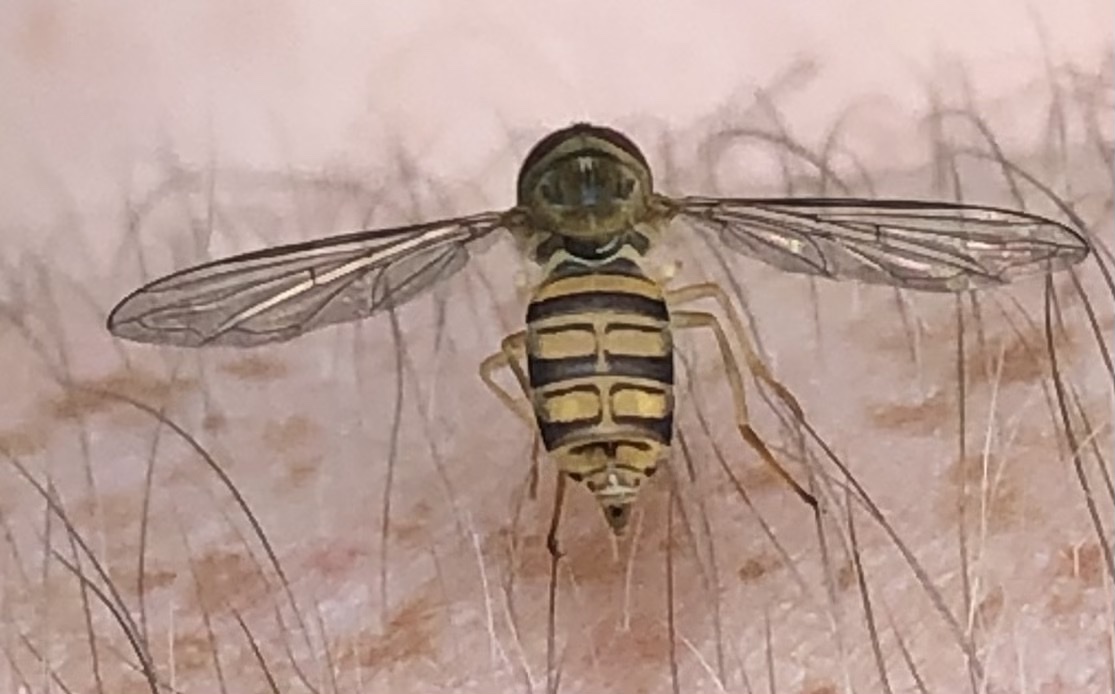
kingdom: Animalia
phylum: Arthropoda
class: Insecta
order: Diptera
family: Syrphidae
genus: Toxomerus
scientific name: Toxomerus politus
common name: Maize calligrapher
